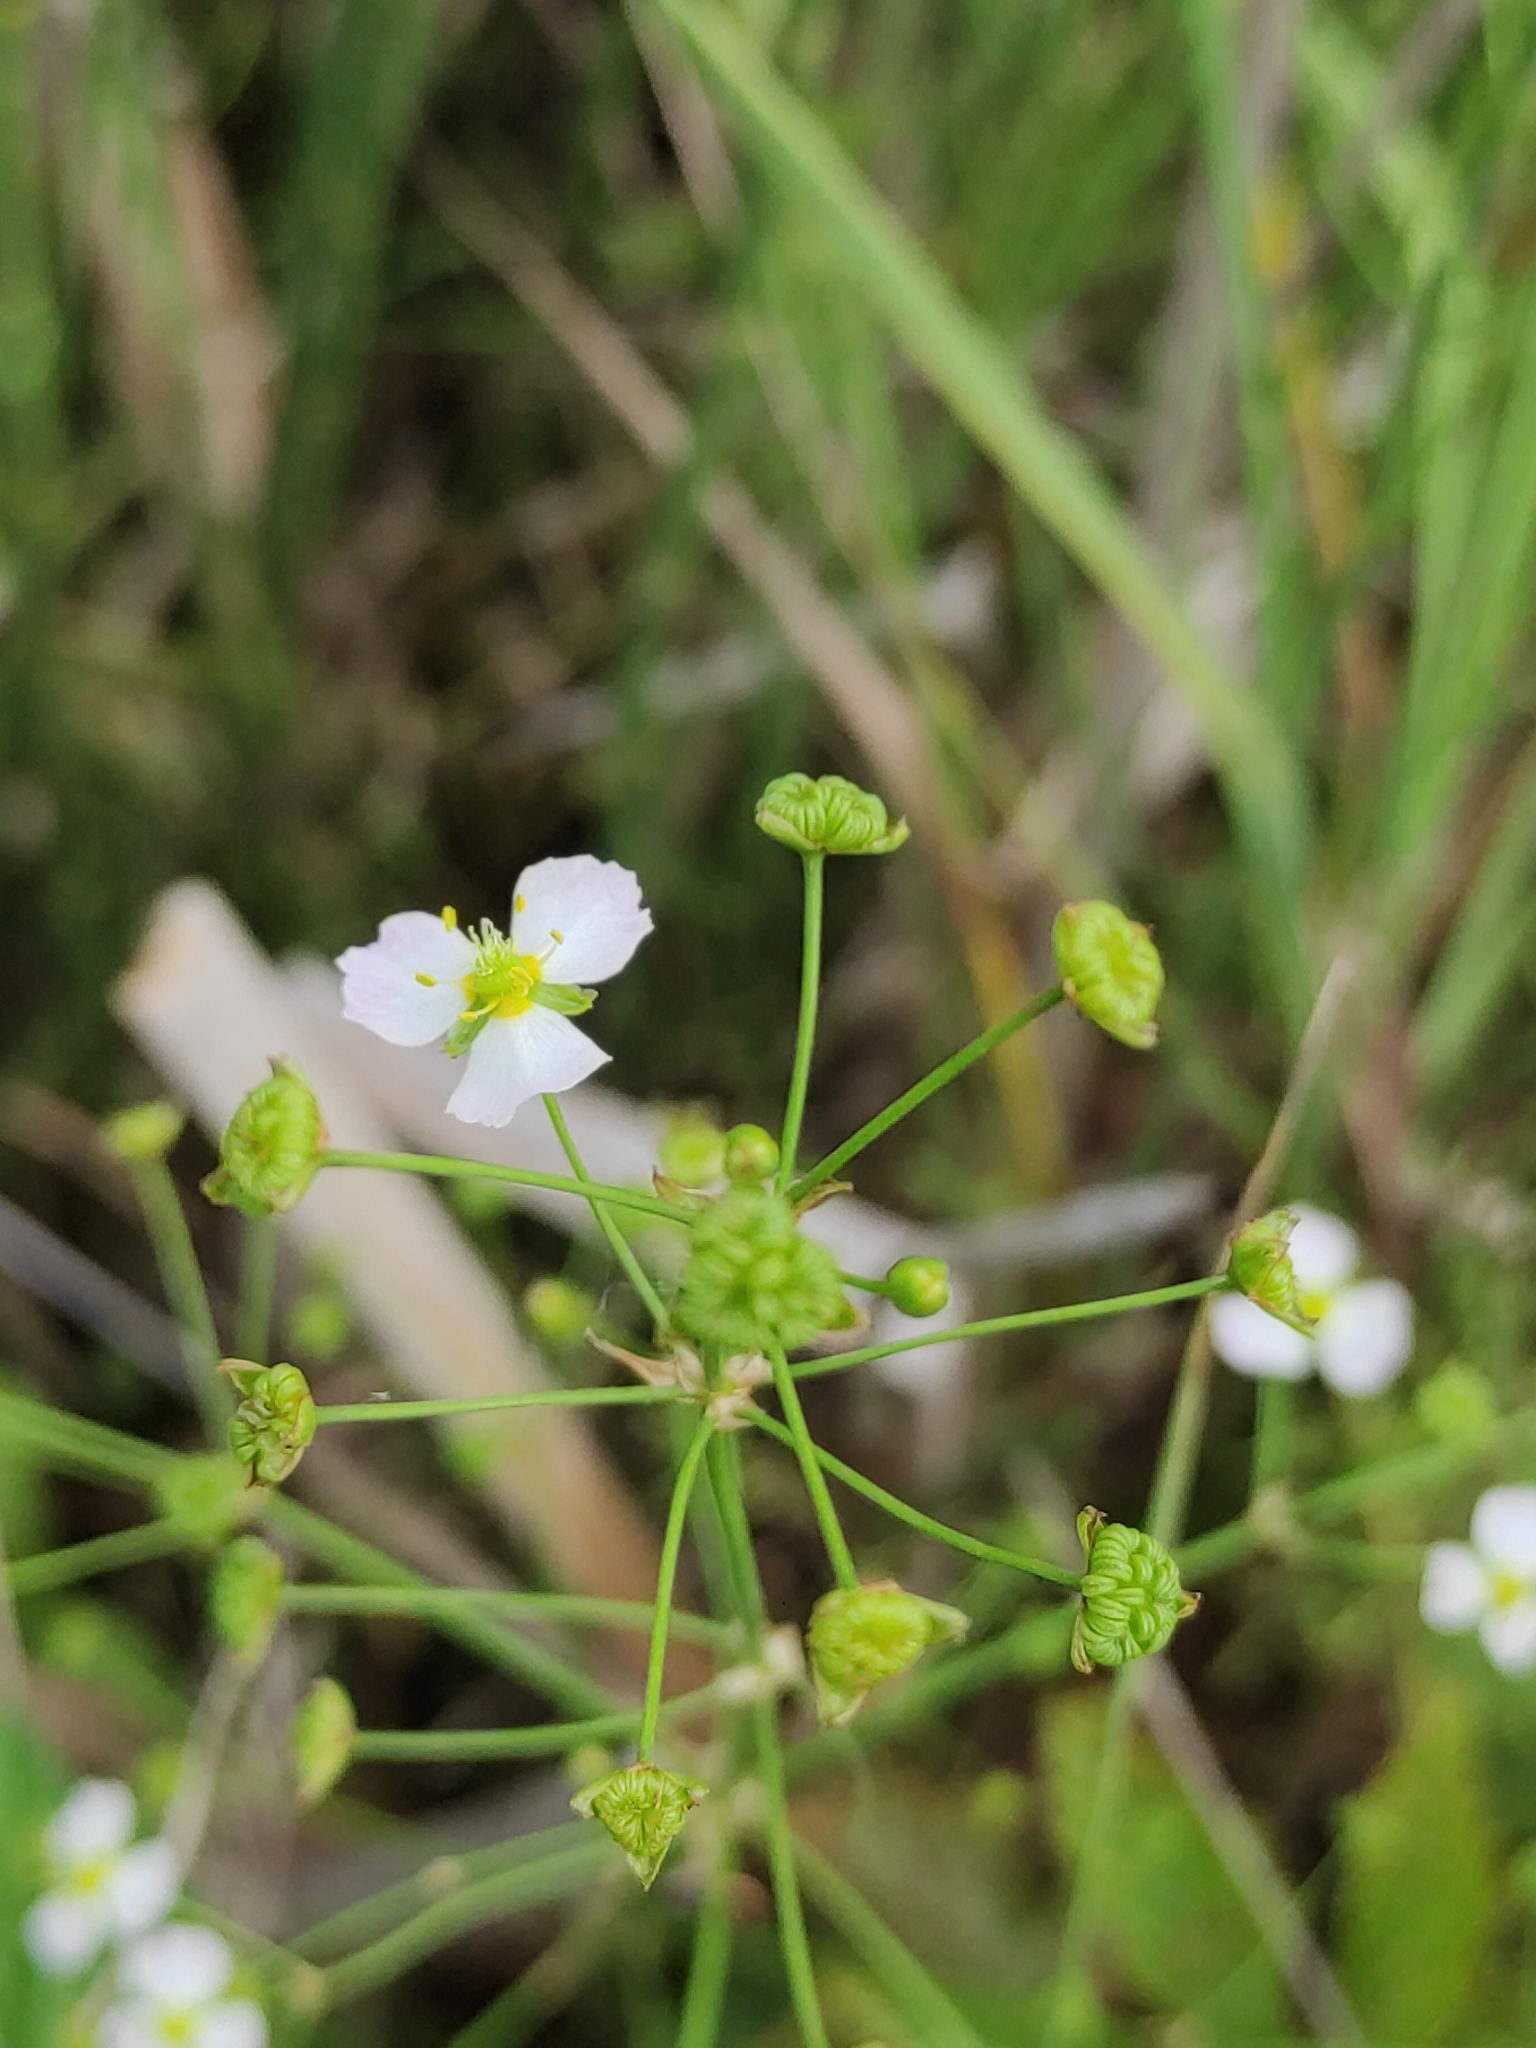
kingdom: Plantae
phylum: Tracheophyta
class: Liliopsida
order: Alismatales
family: Alismataceae
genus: Alisma
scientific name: Alisma plantago-aquatica
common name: Water-plantain
